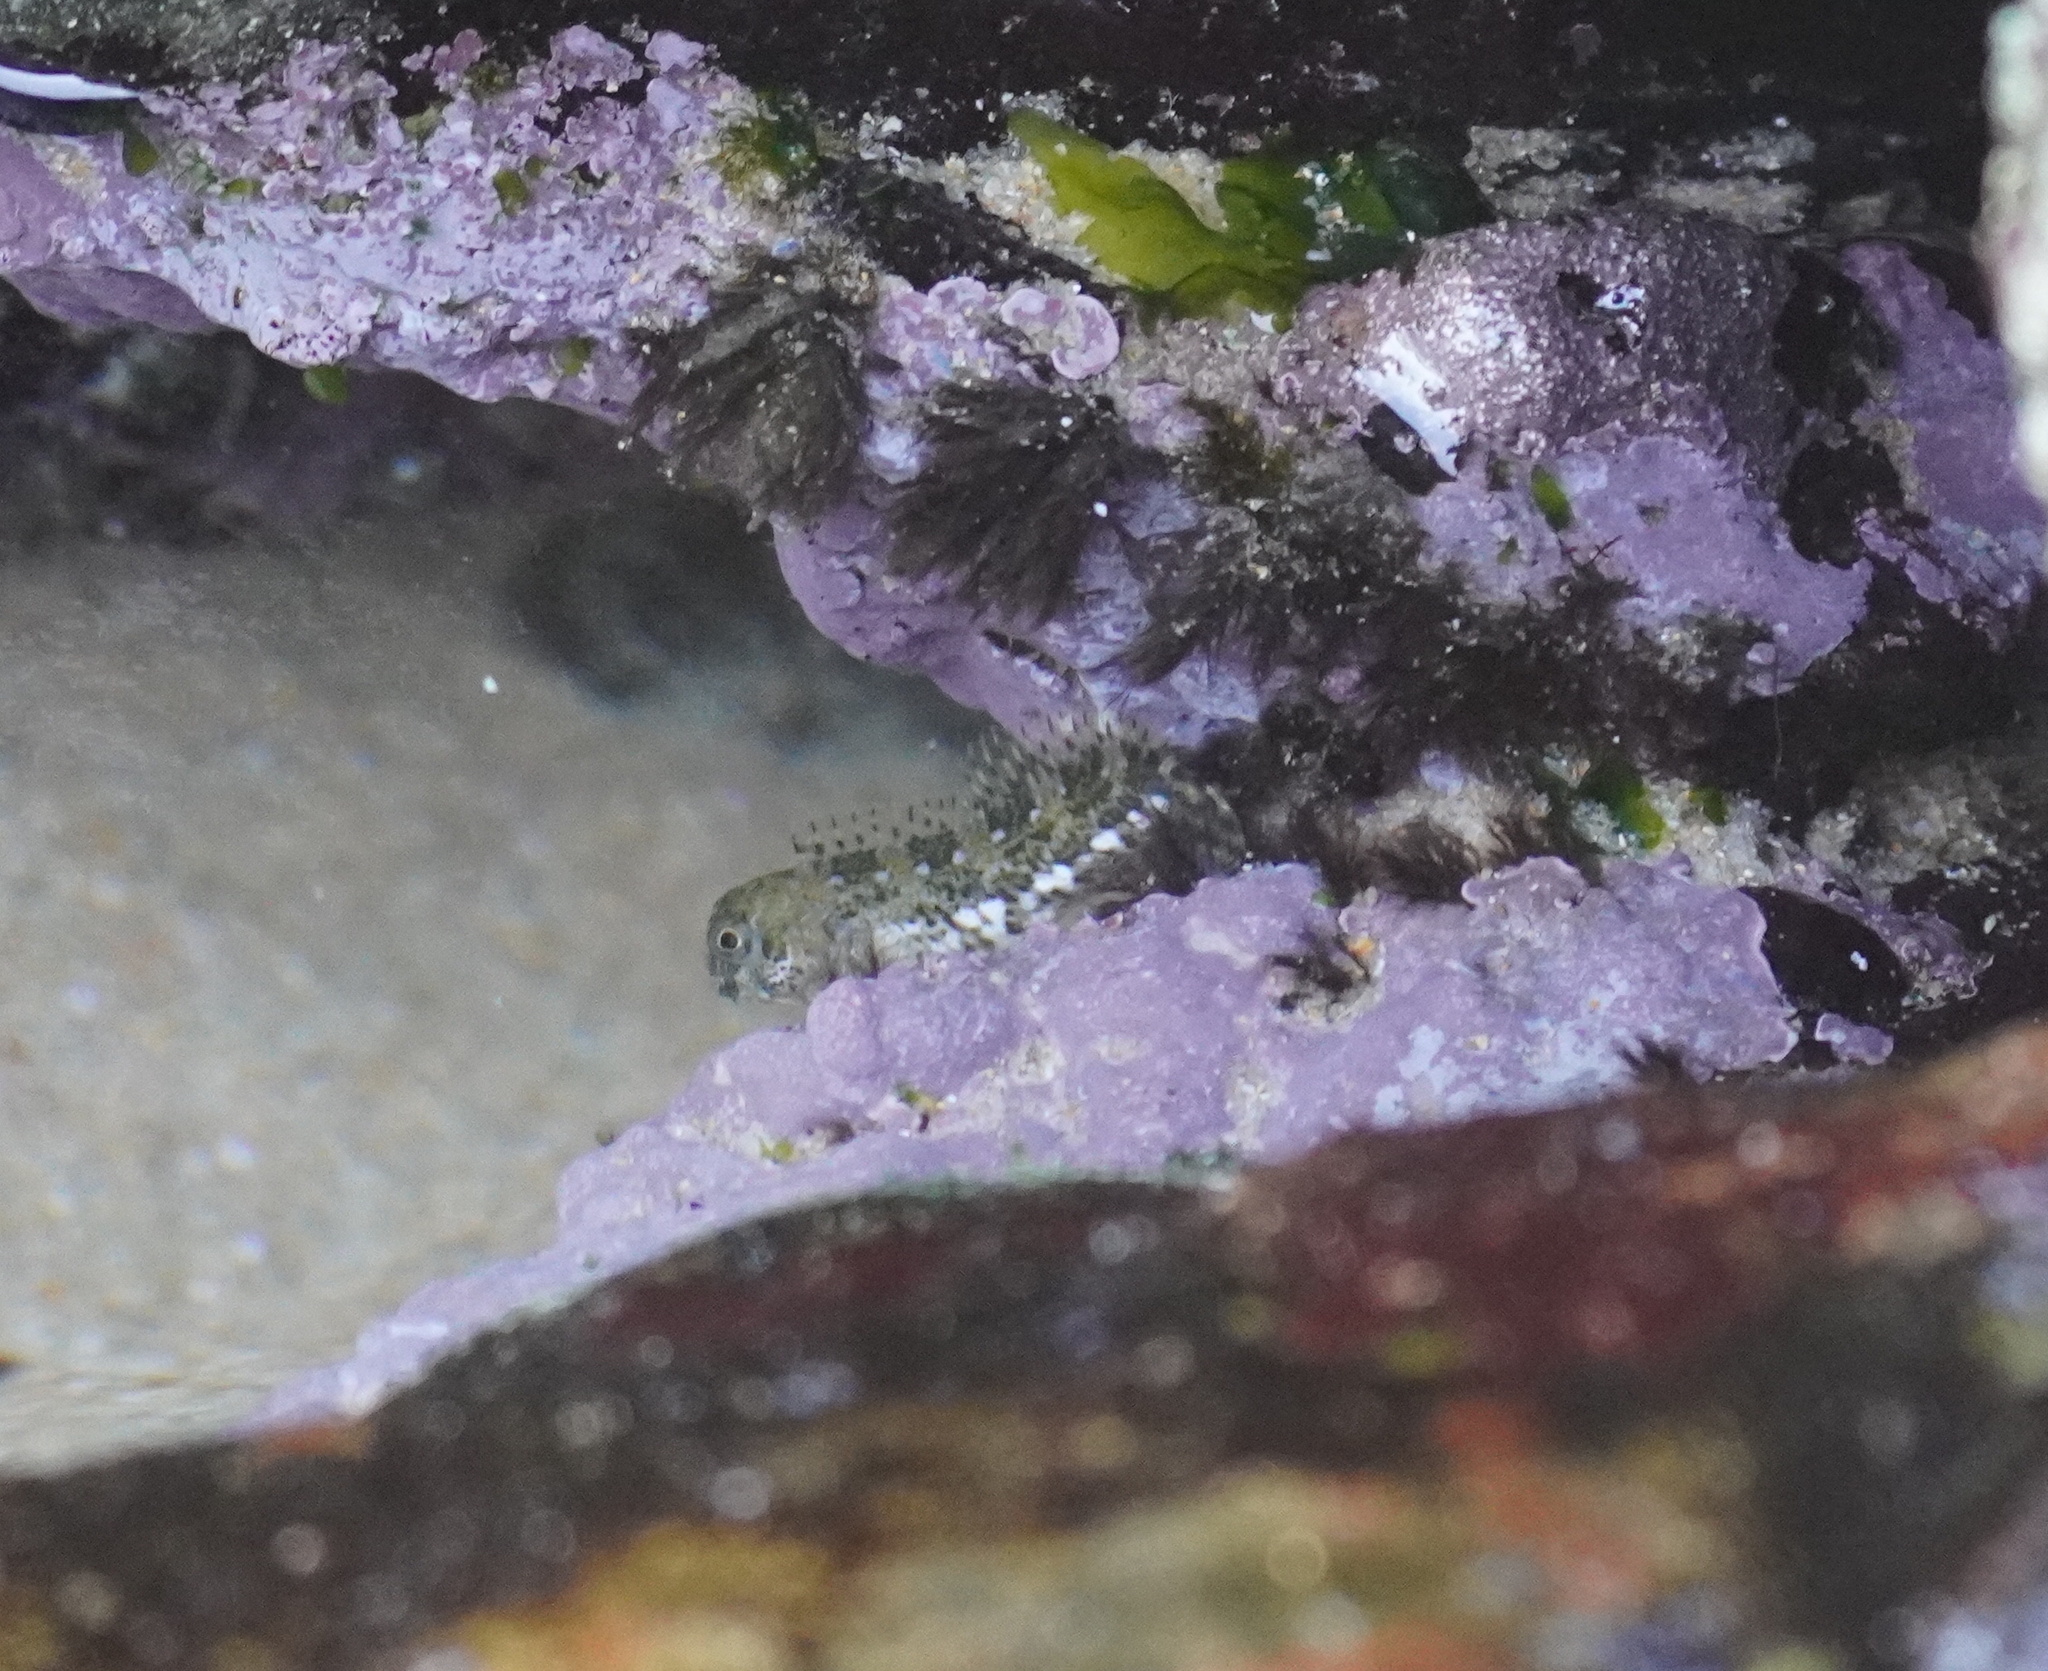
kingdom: Animalia
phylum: Chordata
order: Perciformes
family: Blenniidae
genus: Lipophrys
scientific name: Lipophrys pholis
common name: Shanny
